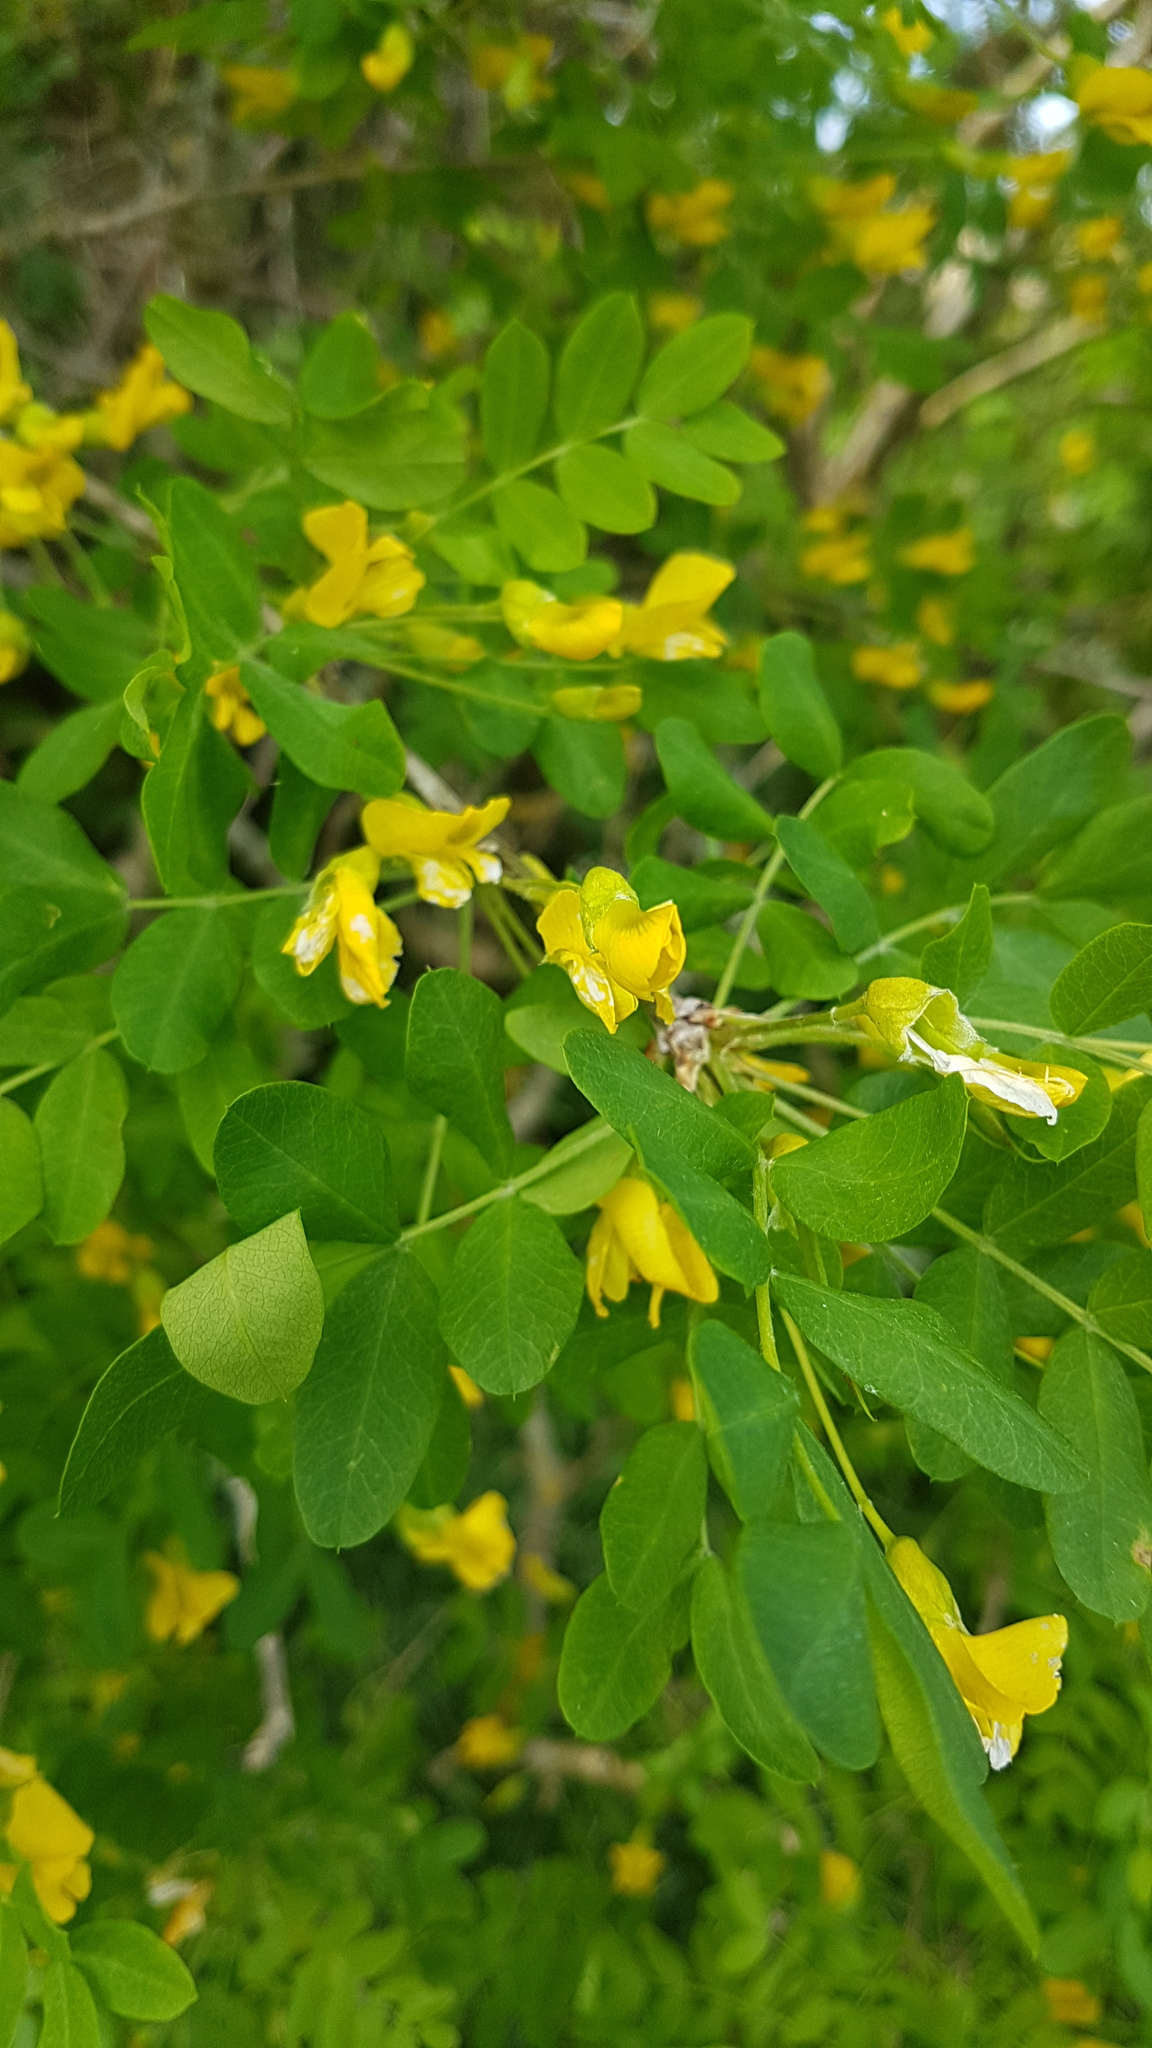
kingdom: Plantae
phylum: Tracheophyta
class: Magnoliopsida
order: Fabales
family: Fabaceae
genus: Caragana
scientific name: Caragana arborescens
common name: Siberian peashrub
